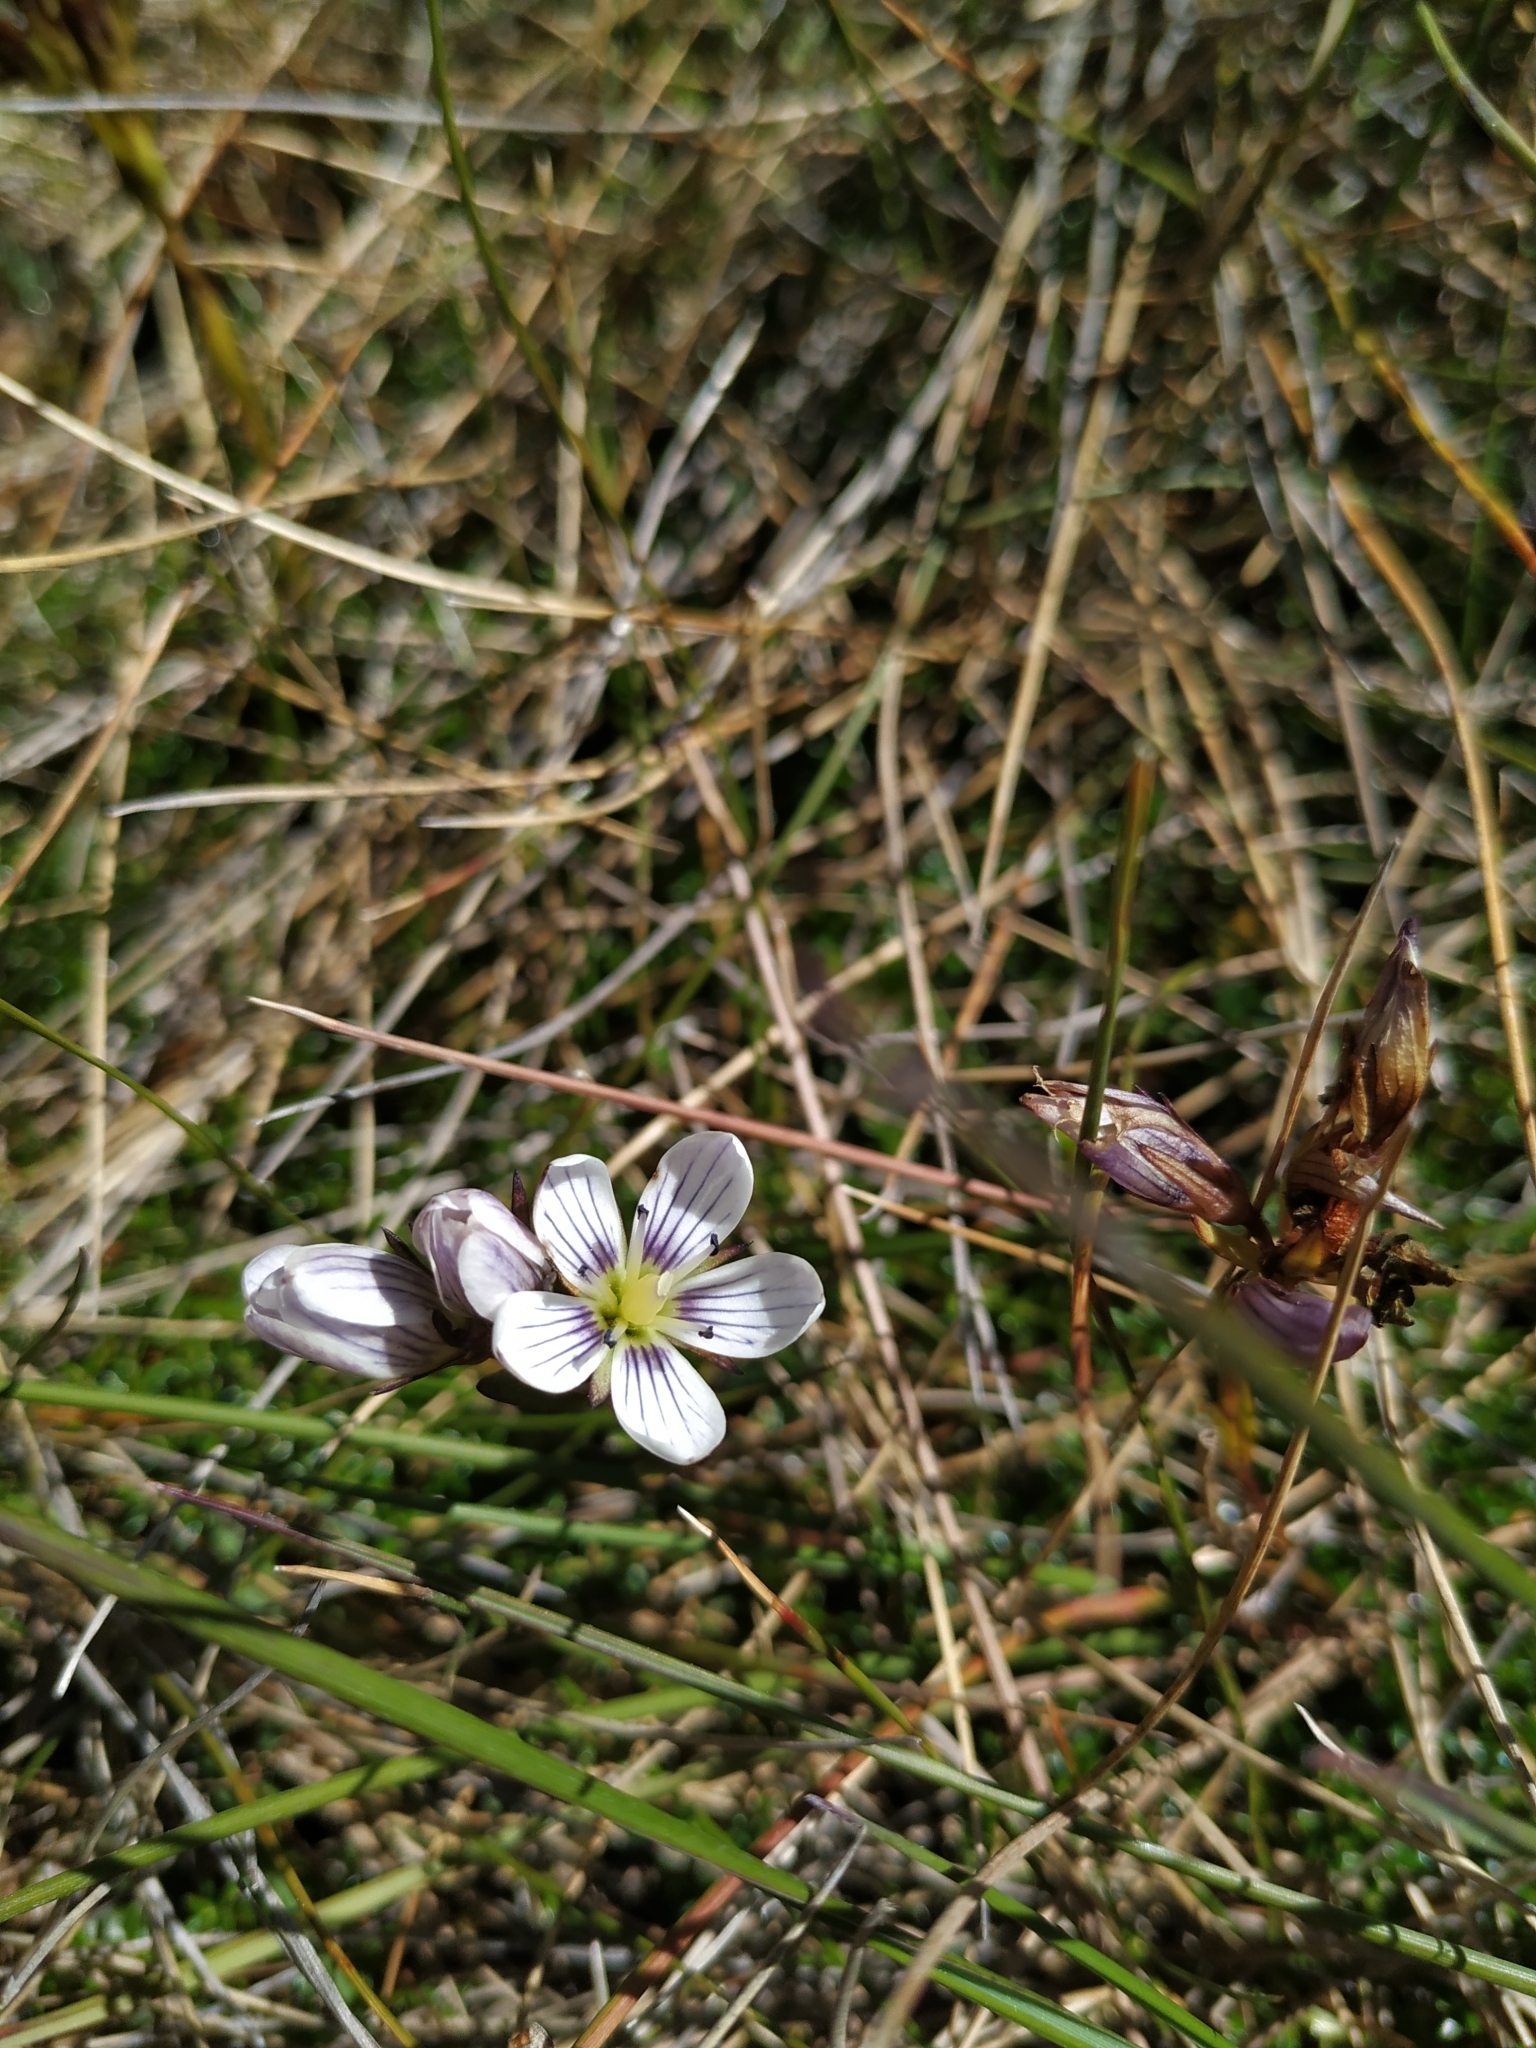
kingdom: Plantae
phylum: Tracheophyta
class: Magnoliopsida
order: Gentianales
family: Gentianaceae
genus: Gentianella
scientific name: Gentianella corymbosa
